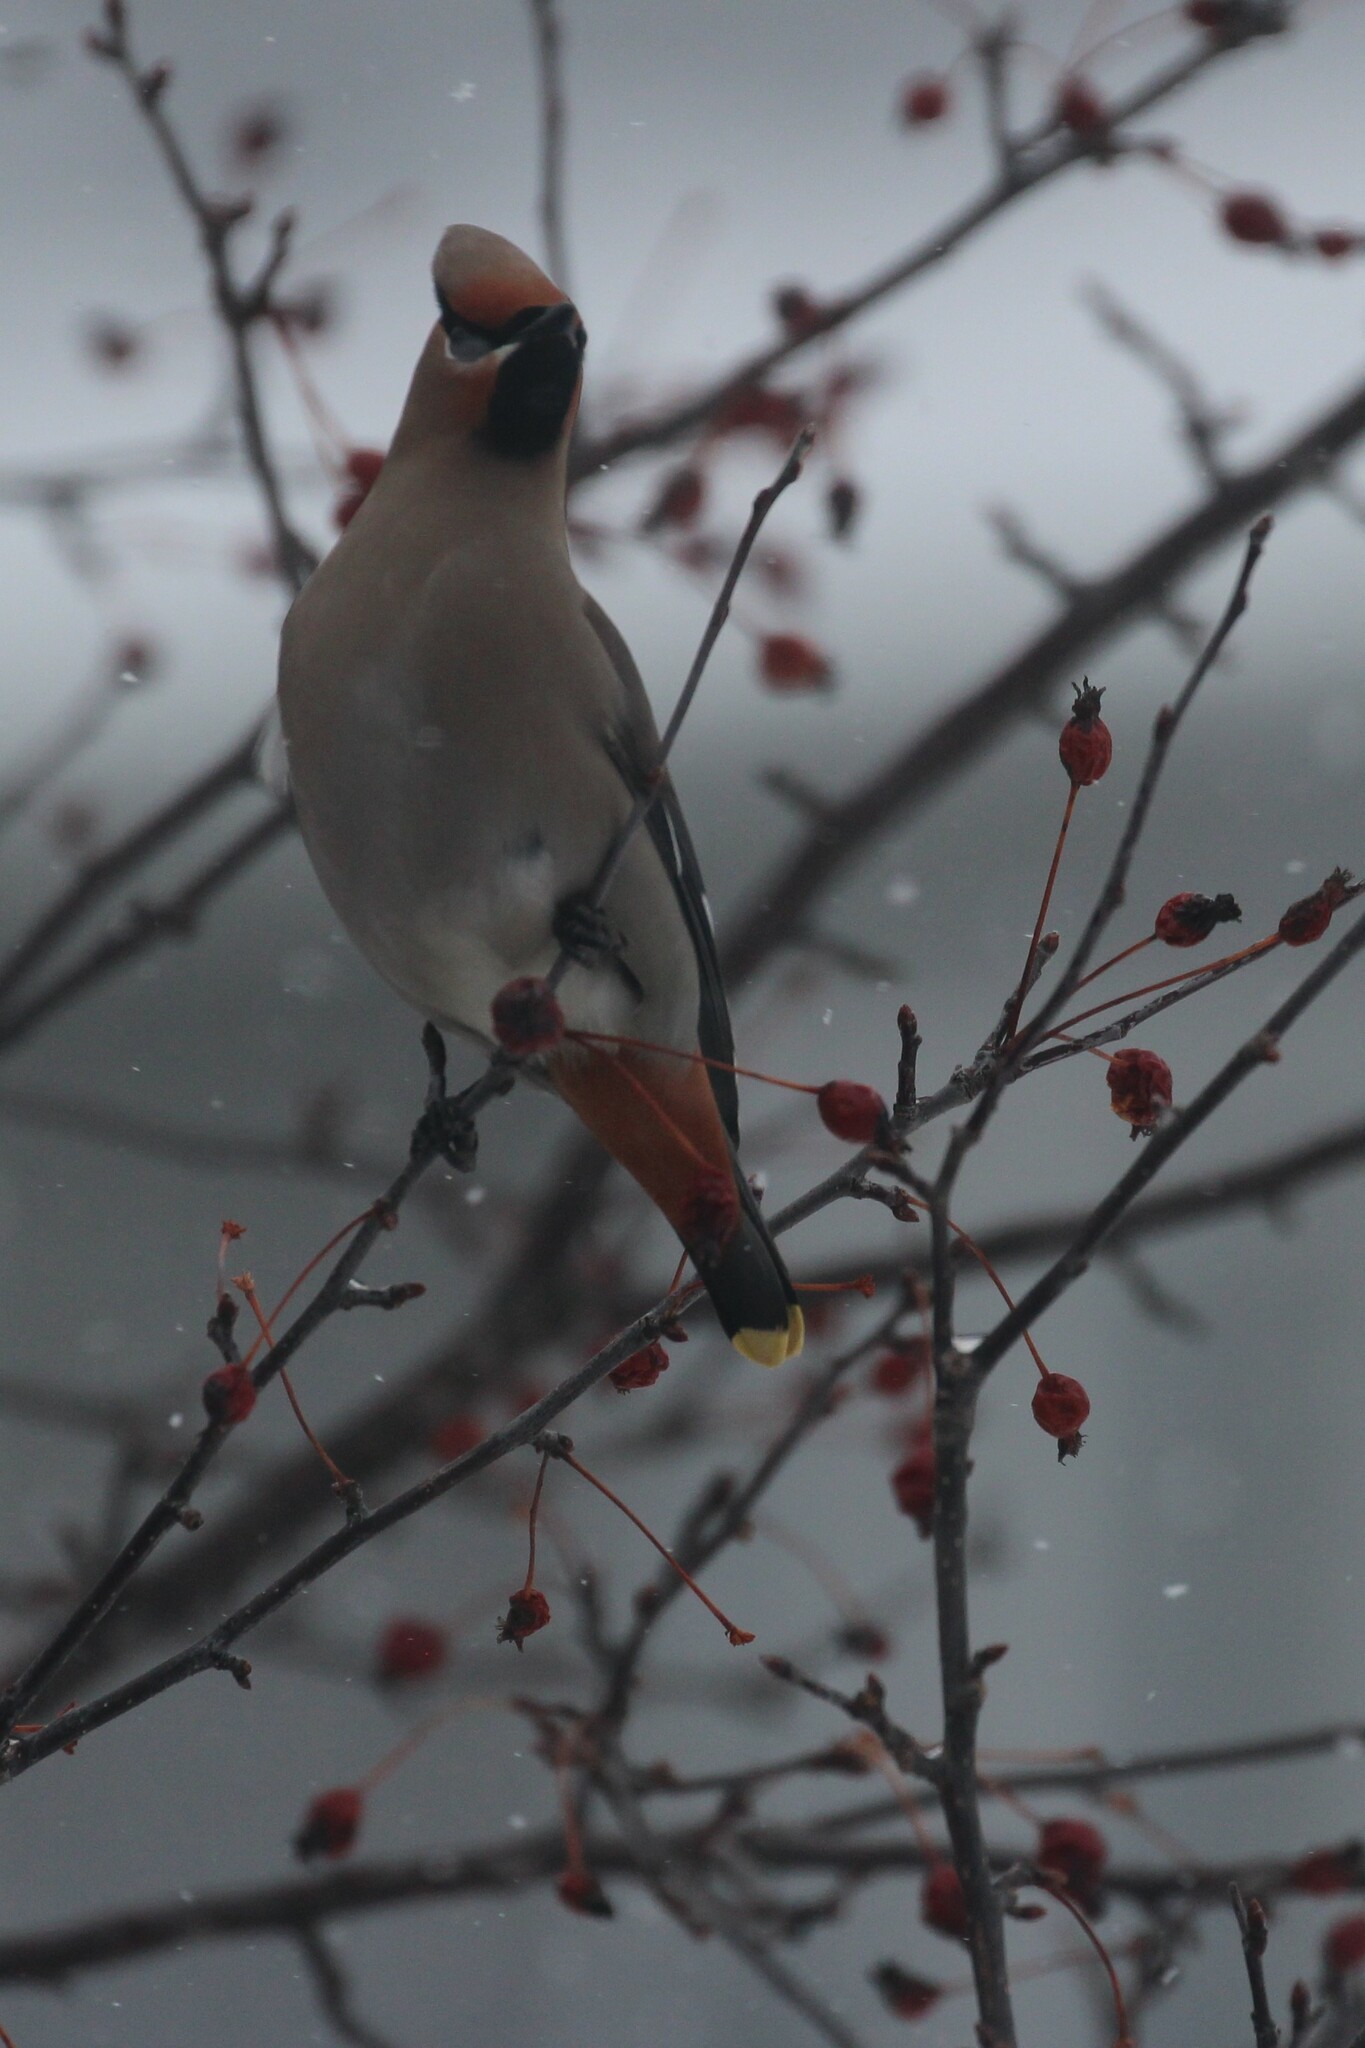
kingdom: Animalia
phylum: Chordata
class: Aves
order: Passeriformes
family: Bombycillidae
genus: Bombycilla
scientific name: Bombycilla garrulus
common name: Bohemian waxwing
